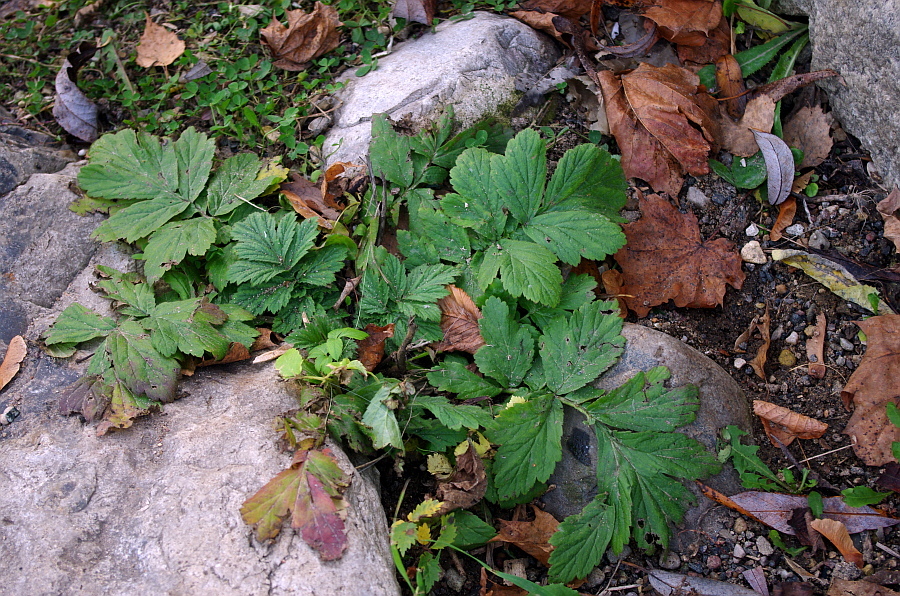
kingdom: Plantae
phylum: Tracheophyta
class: Magnoliopsida
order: Rosales
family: Rosaceae
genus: Geum
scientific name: Geum
